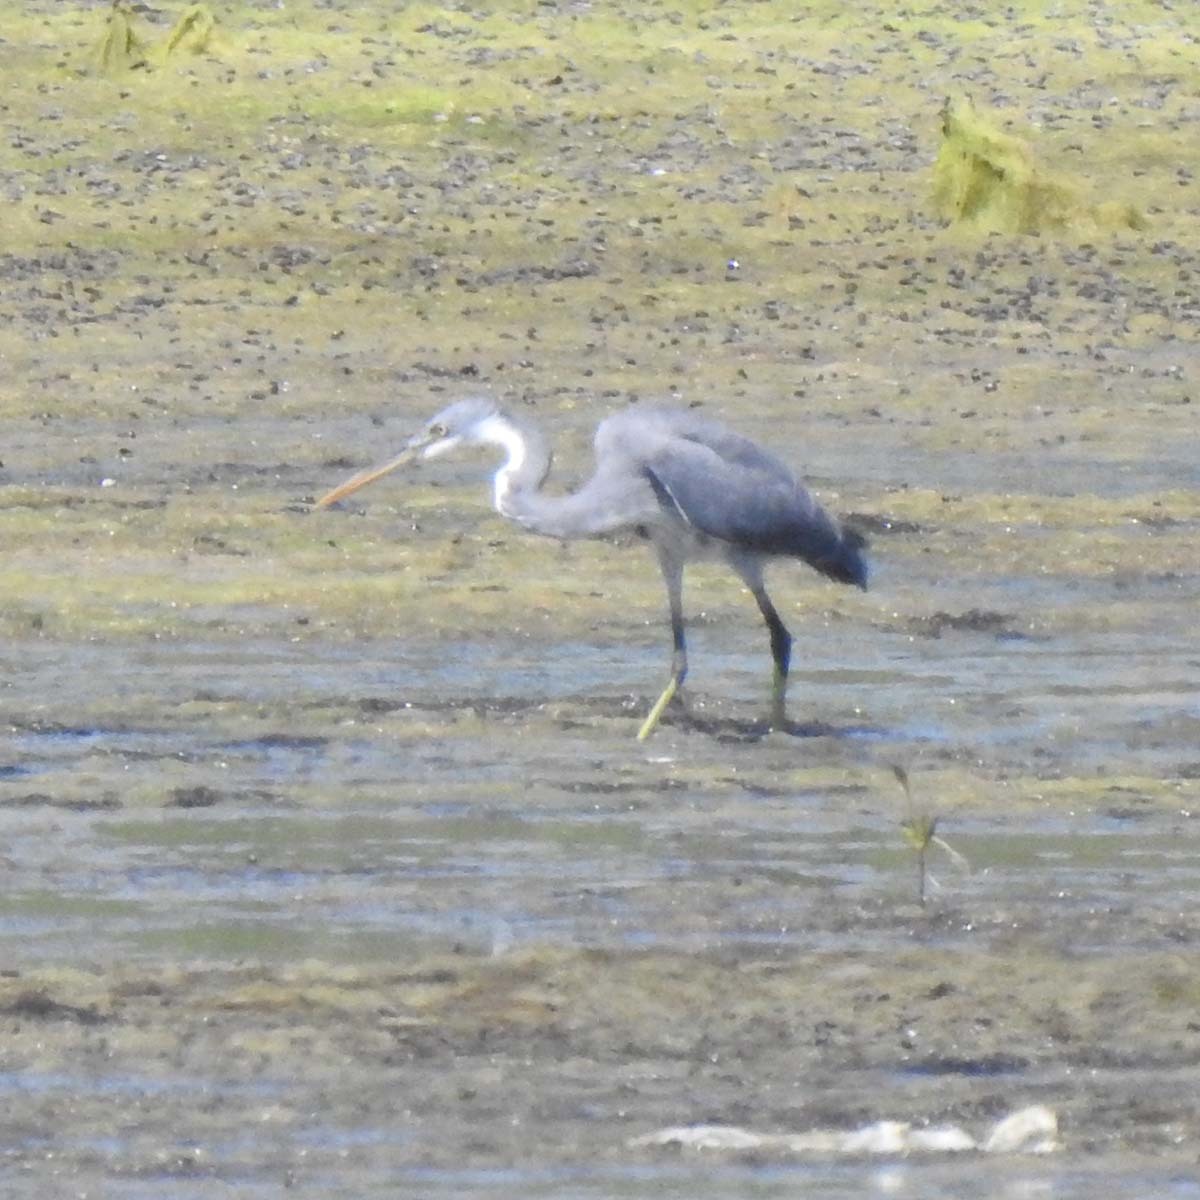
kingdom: Animalia
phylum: Chordata
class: Aves
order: Pelecaniformes
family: Ardeidae
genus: Egretta
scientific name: Egretta gularis
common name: Western reef-heron
